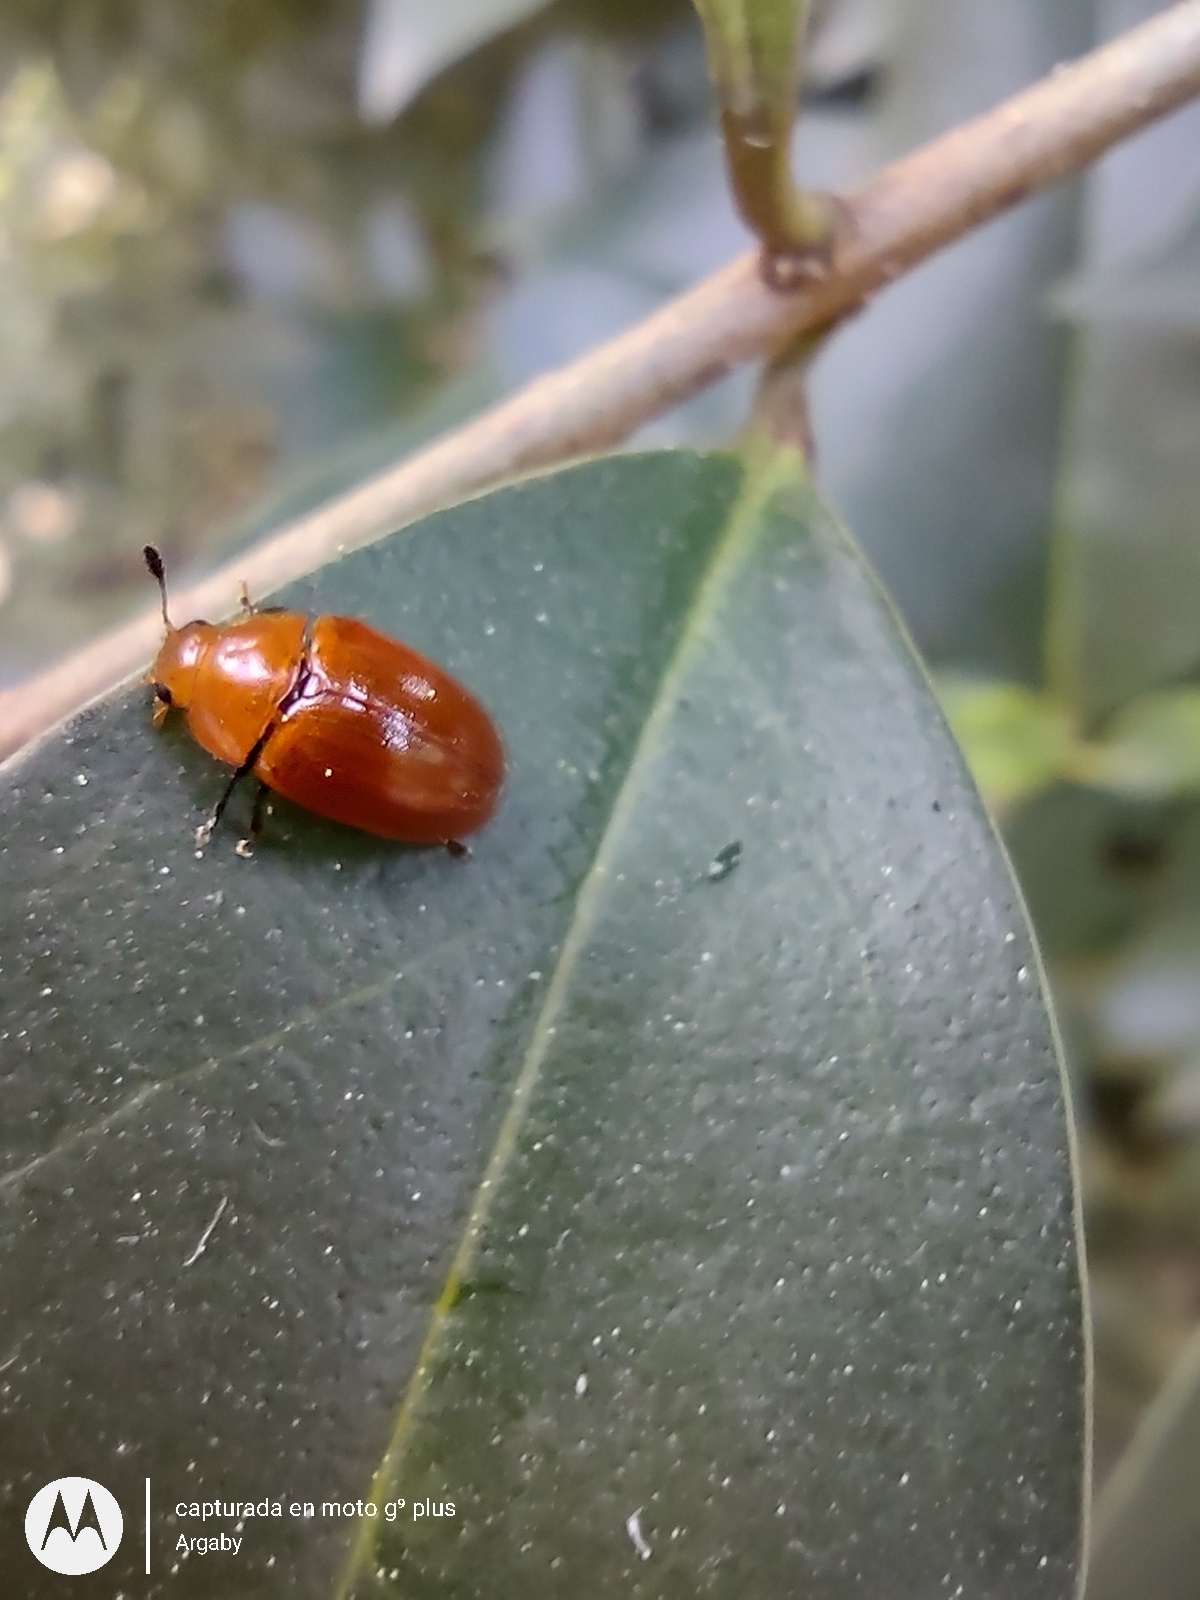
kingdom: Animalia
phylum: Arthropoda
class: Insecta
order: Coleoptera
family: Erotylidae
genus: Mycomystes
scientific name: Mycomystes nigriventris
